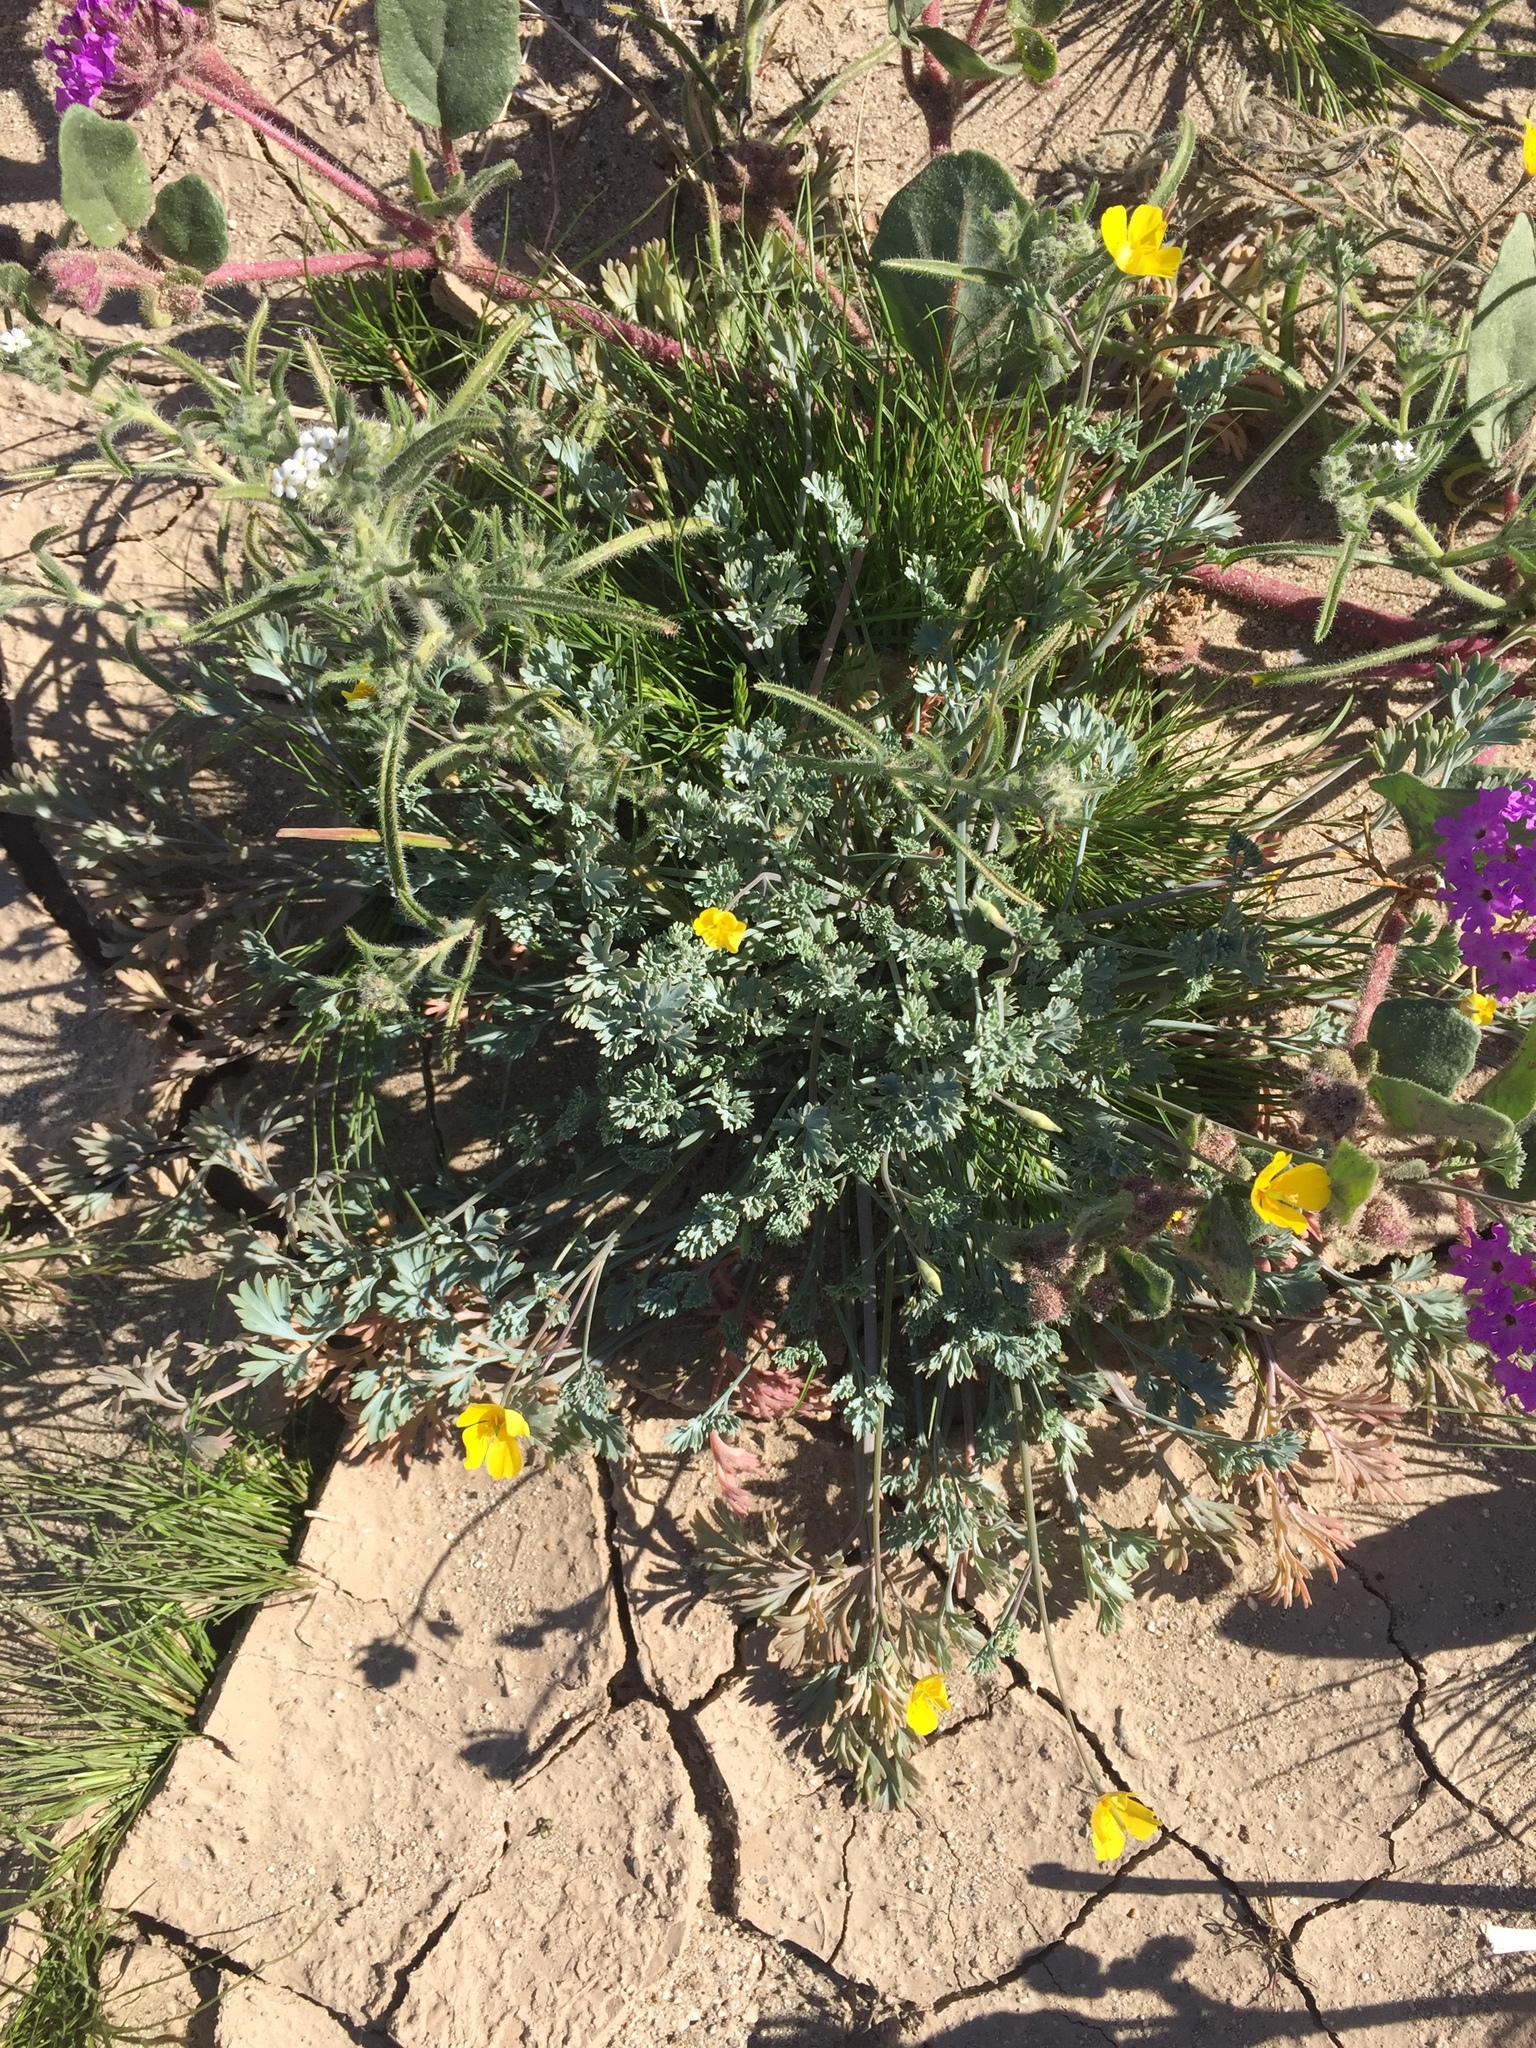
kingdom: Plantae
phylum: Tracheophyta
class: Magnoliopsida
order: Ranunculales
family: Papaveraceae
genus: Eschscholzia
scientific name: Eschscholzia minutiflora
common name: Small-flower california-poppy
